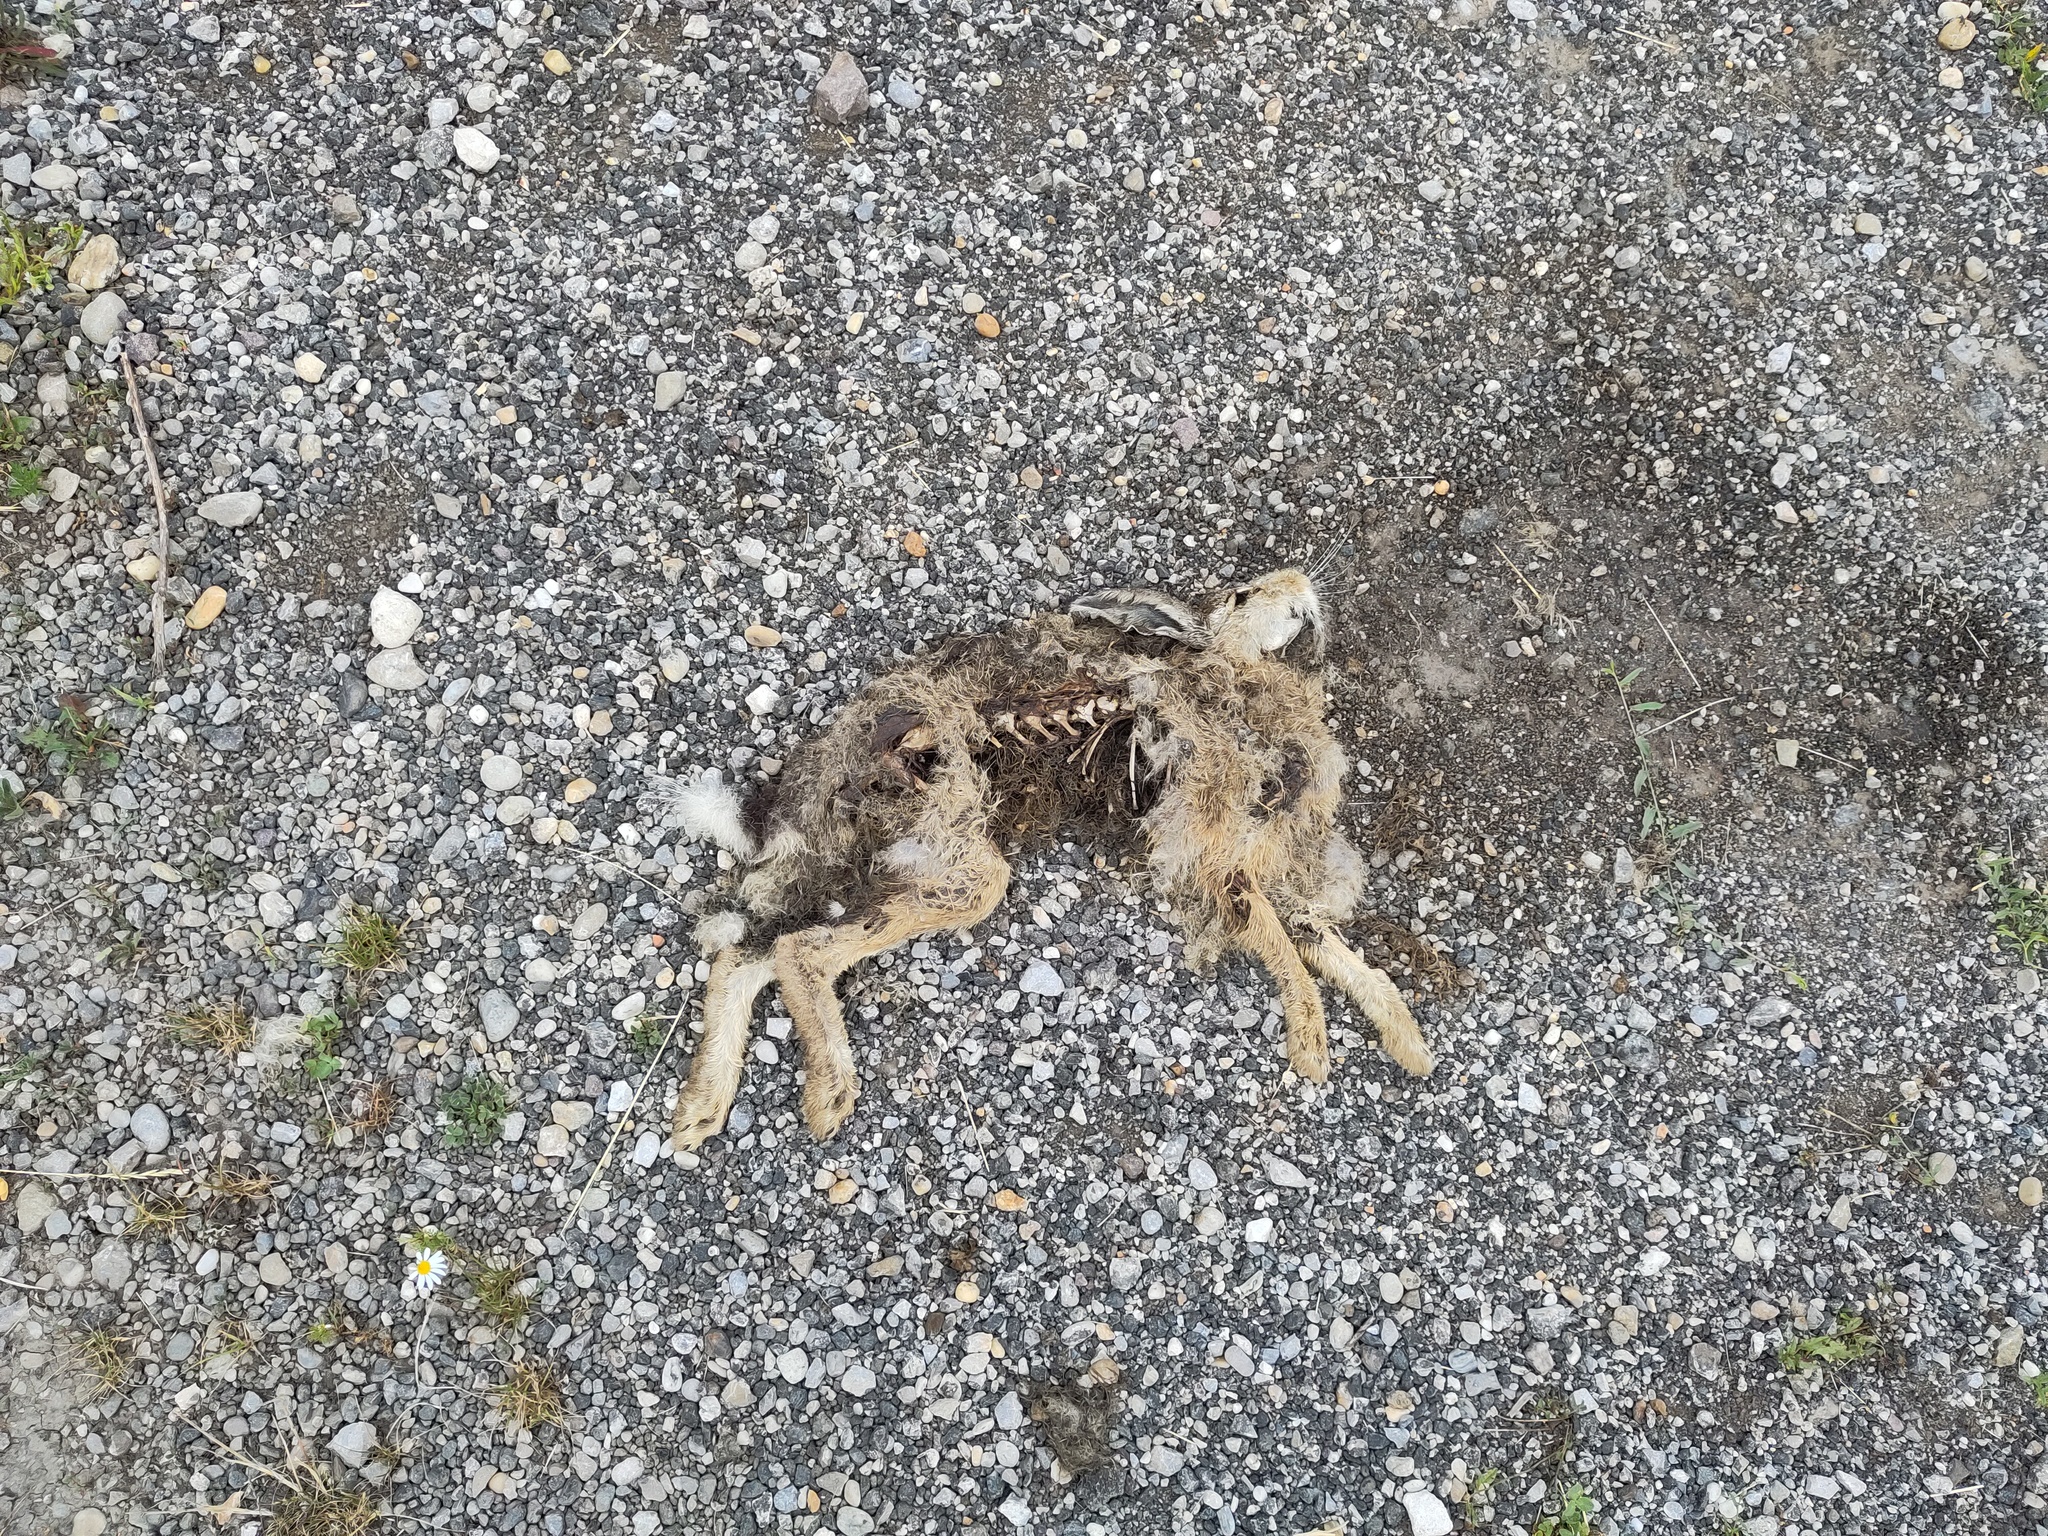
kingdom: Animalia
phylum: Chordata
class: Mammalia
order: Lagomorpha
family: Leporidae
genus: Lepus
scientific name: Lepus europaeus
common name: European hare
